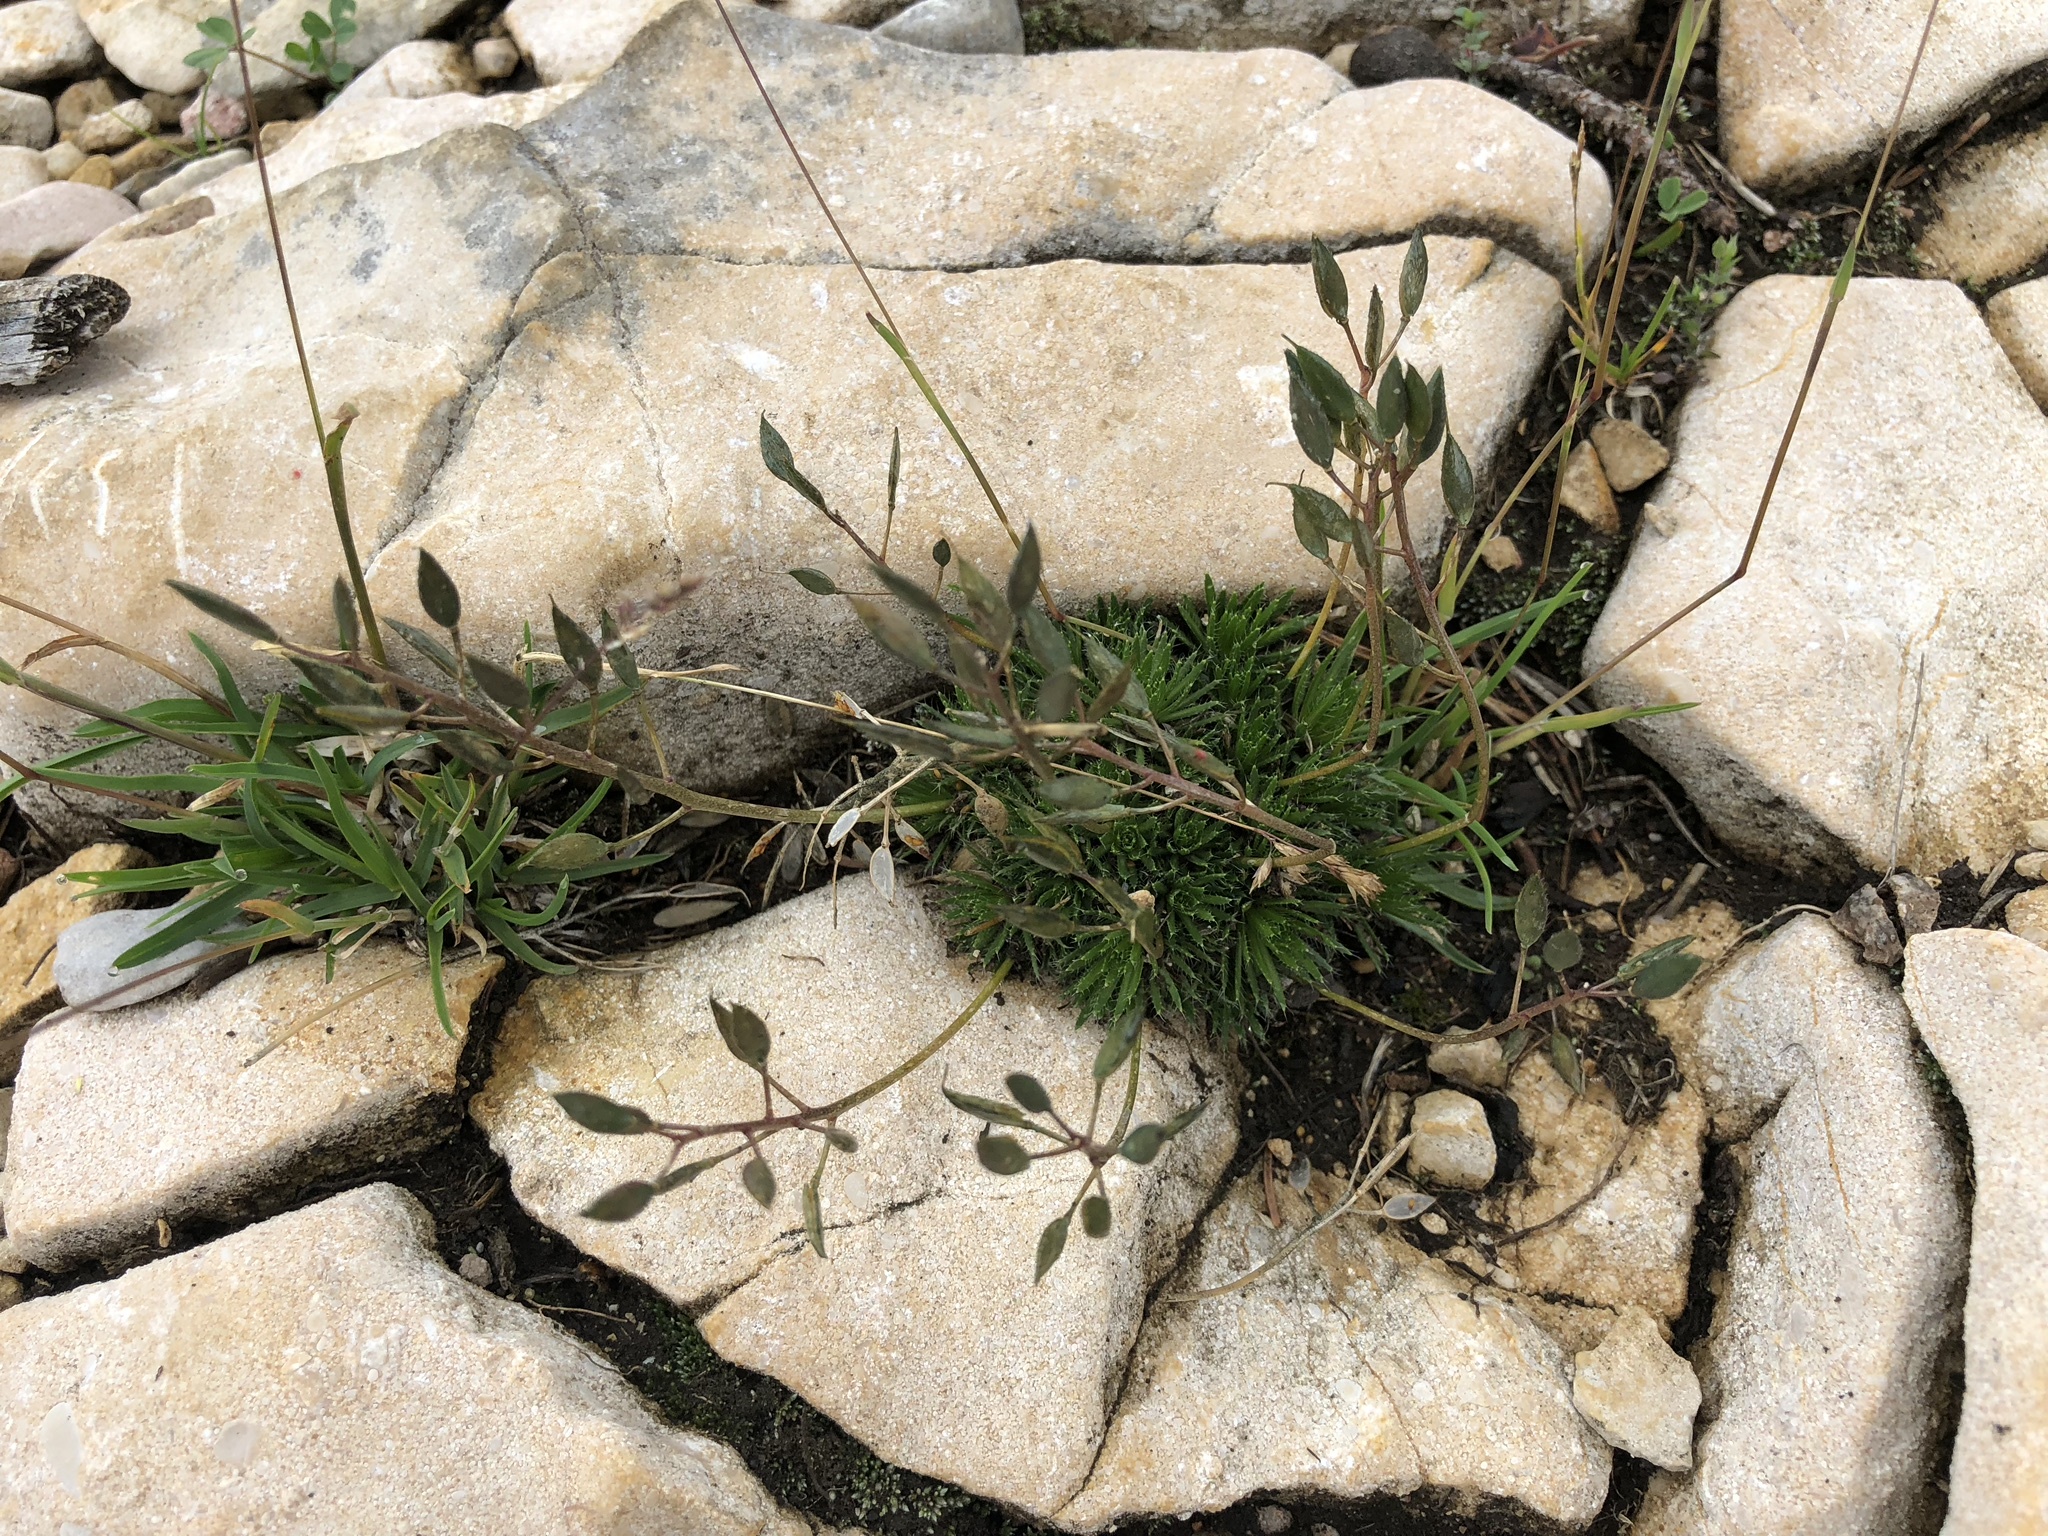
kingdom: Plantae
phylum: Tracheophyta
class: Magnoliopsida
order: Brassicales
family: Brassicaceae
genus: Draba
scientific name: Draba aizoides
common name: Yellow whitlowgrass
